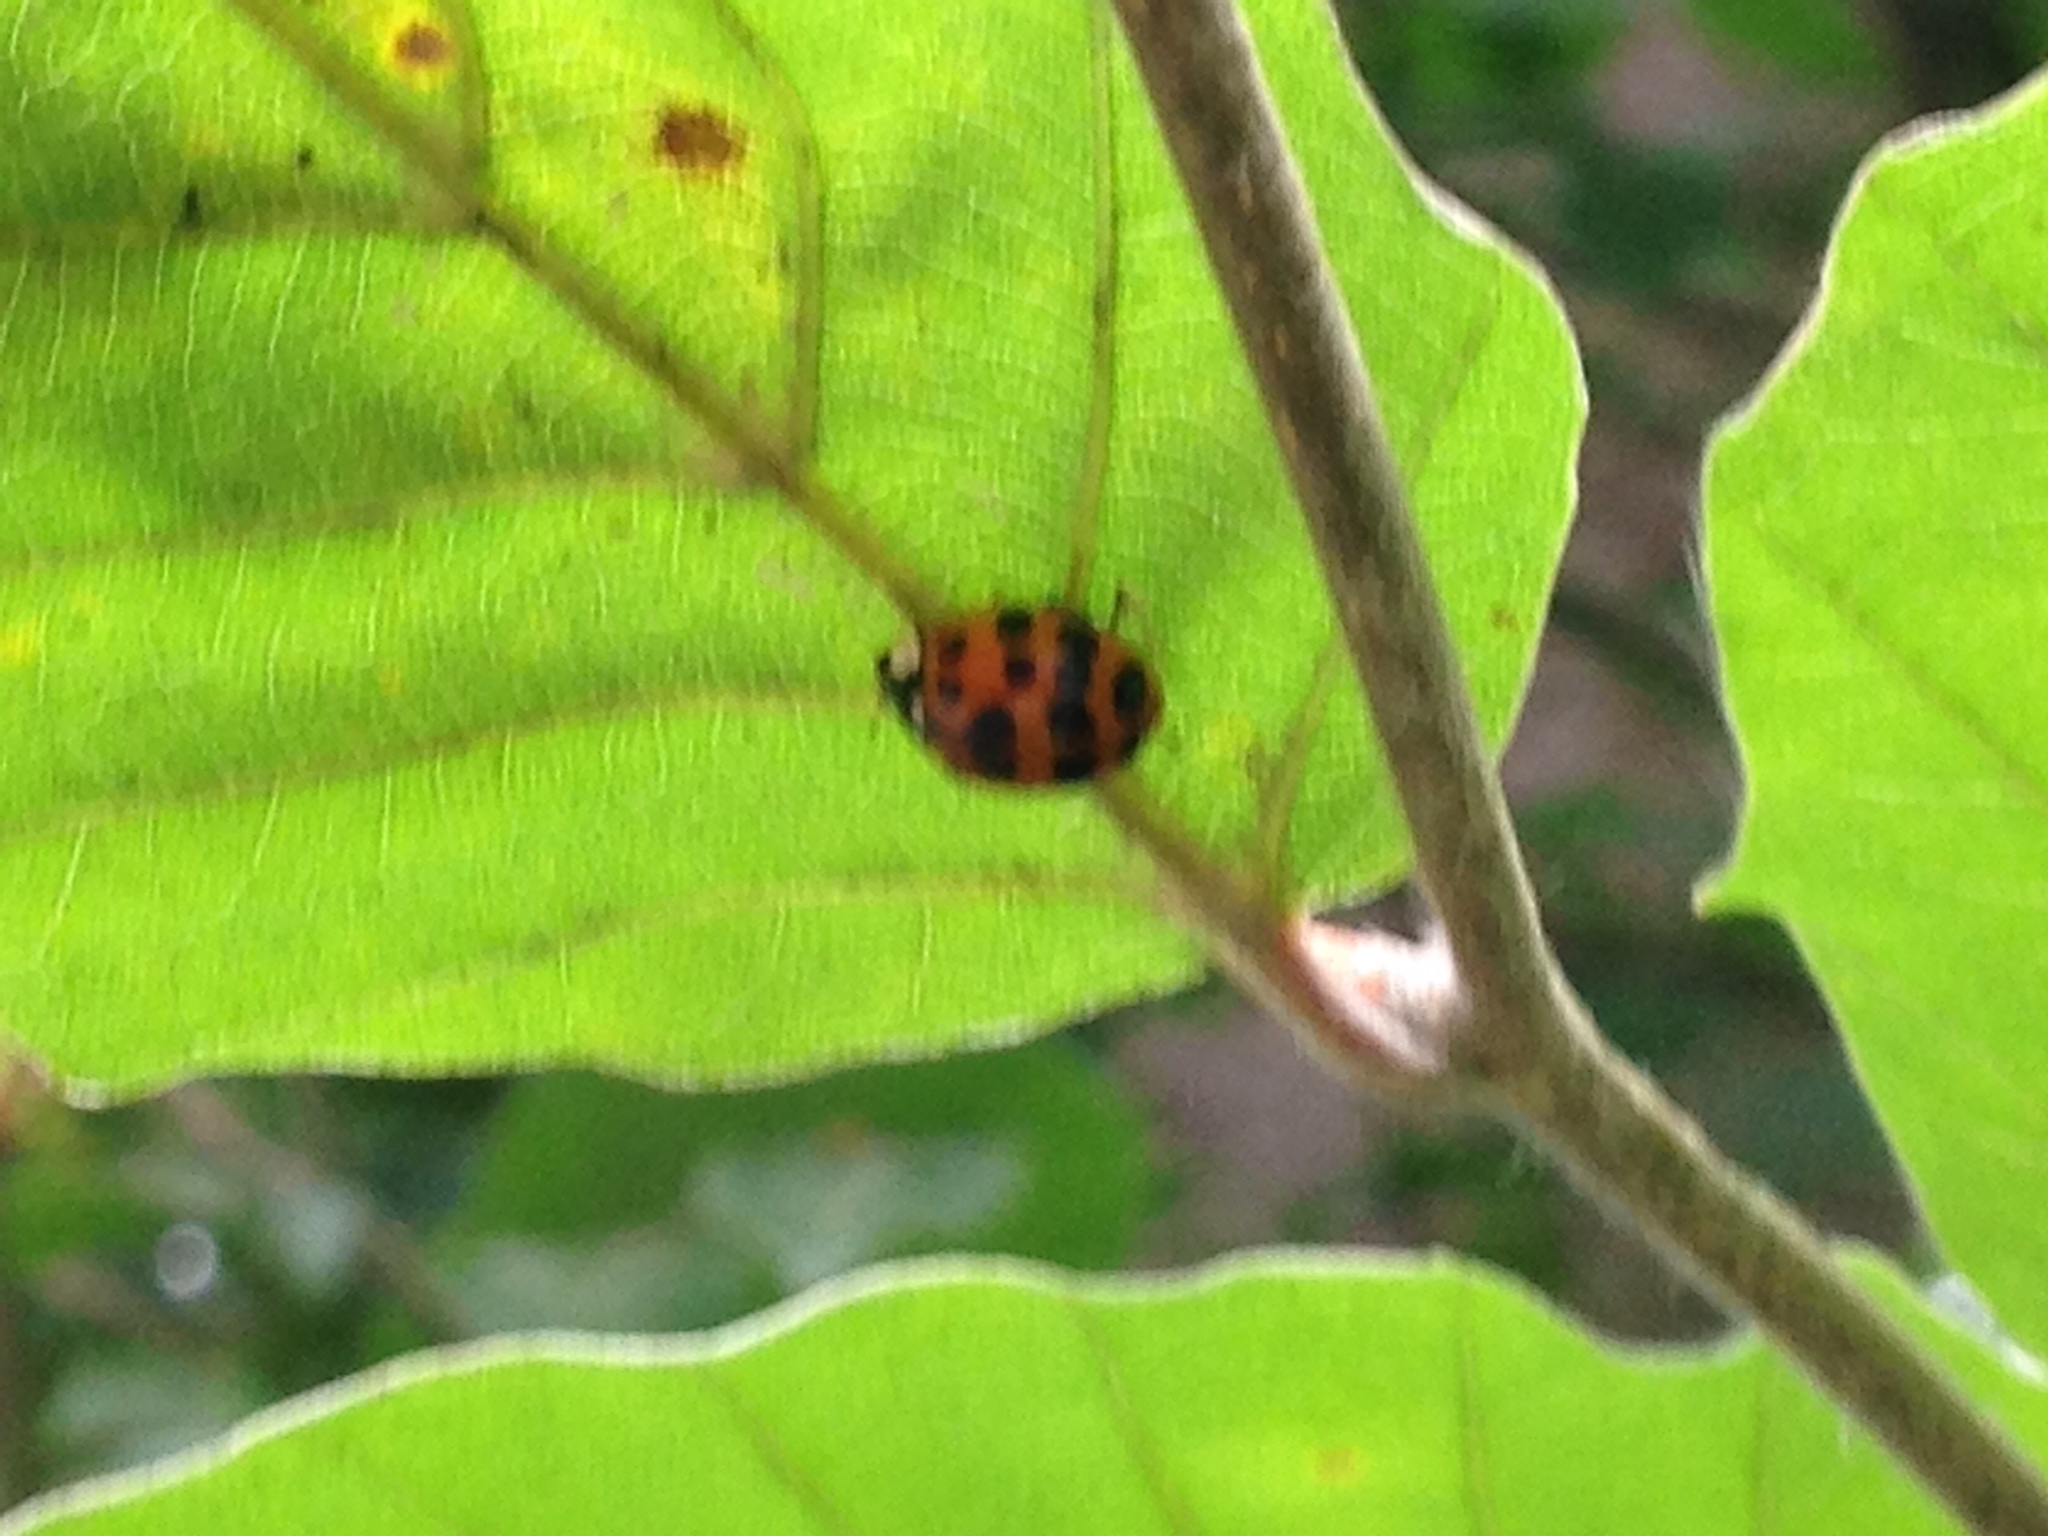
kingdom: Animalia
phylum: Arthropoda
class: Insecta
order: Coleoptera
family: Coccinellidae
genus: Harmonia
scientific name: Harmonia axyridis
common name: Harlequin ladybird
